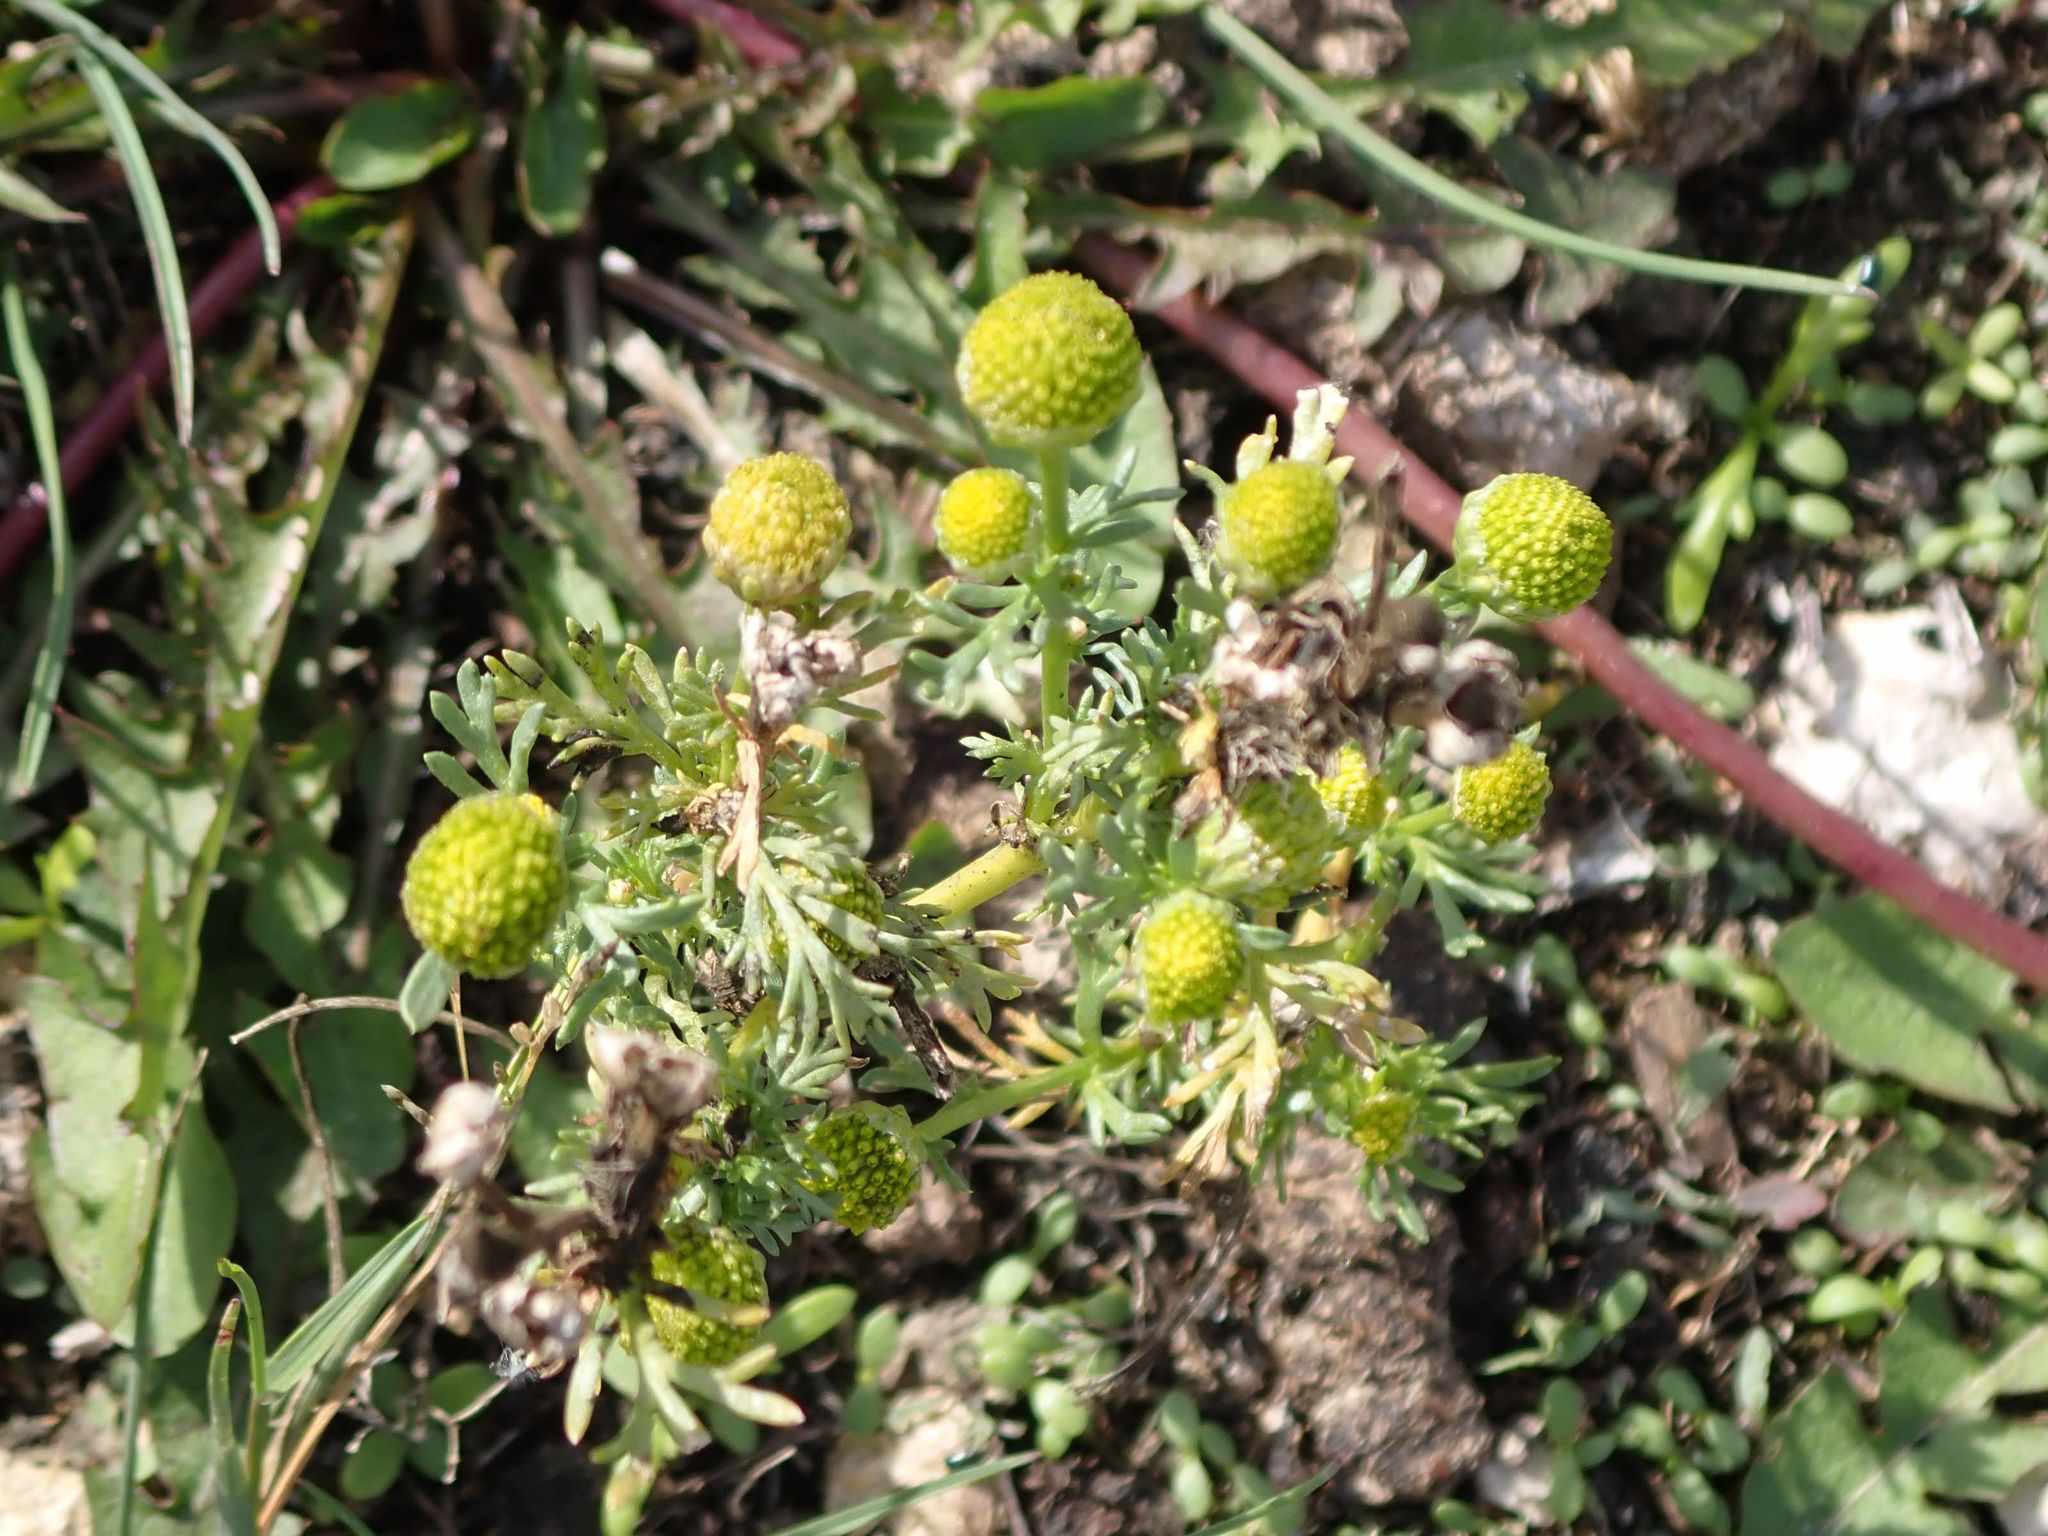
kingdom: Plantae
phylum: Tracheophyta
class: Magnoliopsida
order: Asterales
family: Asteraceae
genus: Matricaria
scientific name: Matricaria discoidea
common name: Disc mayweed
